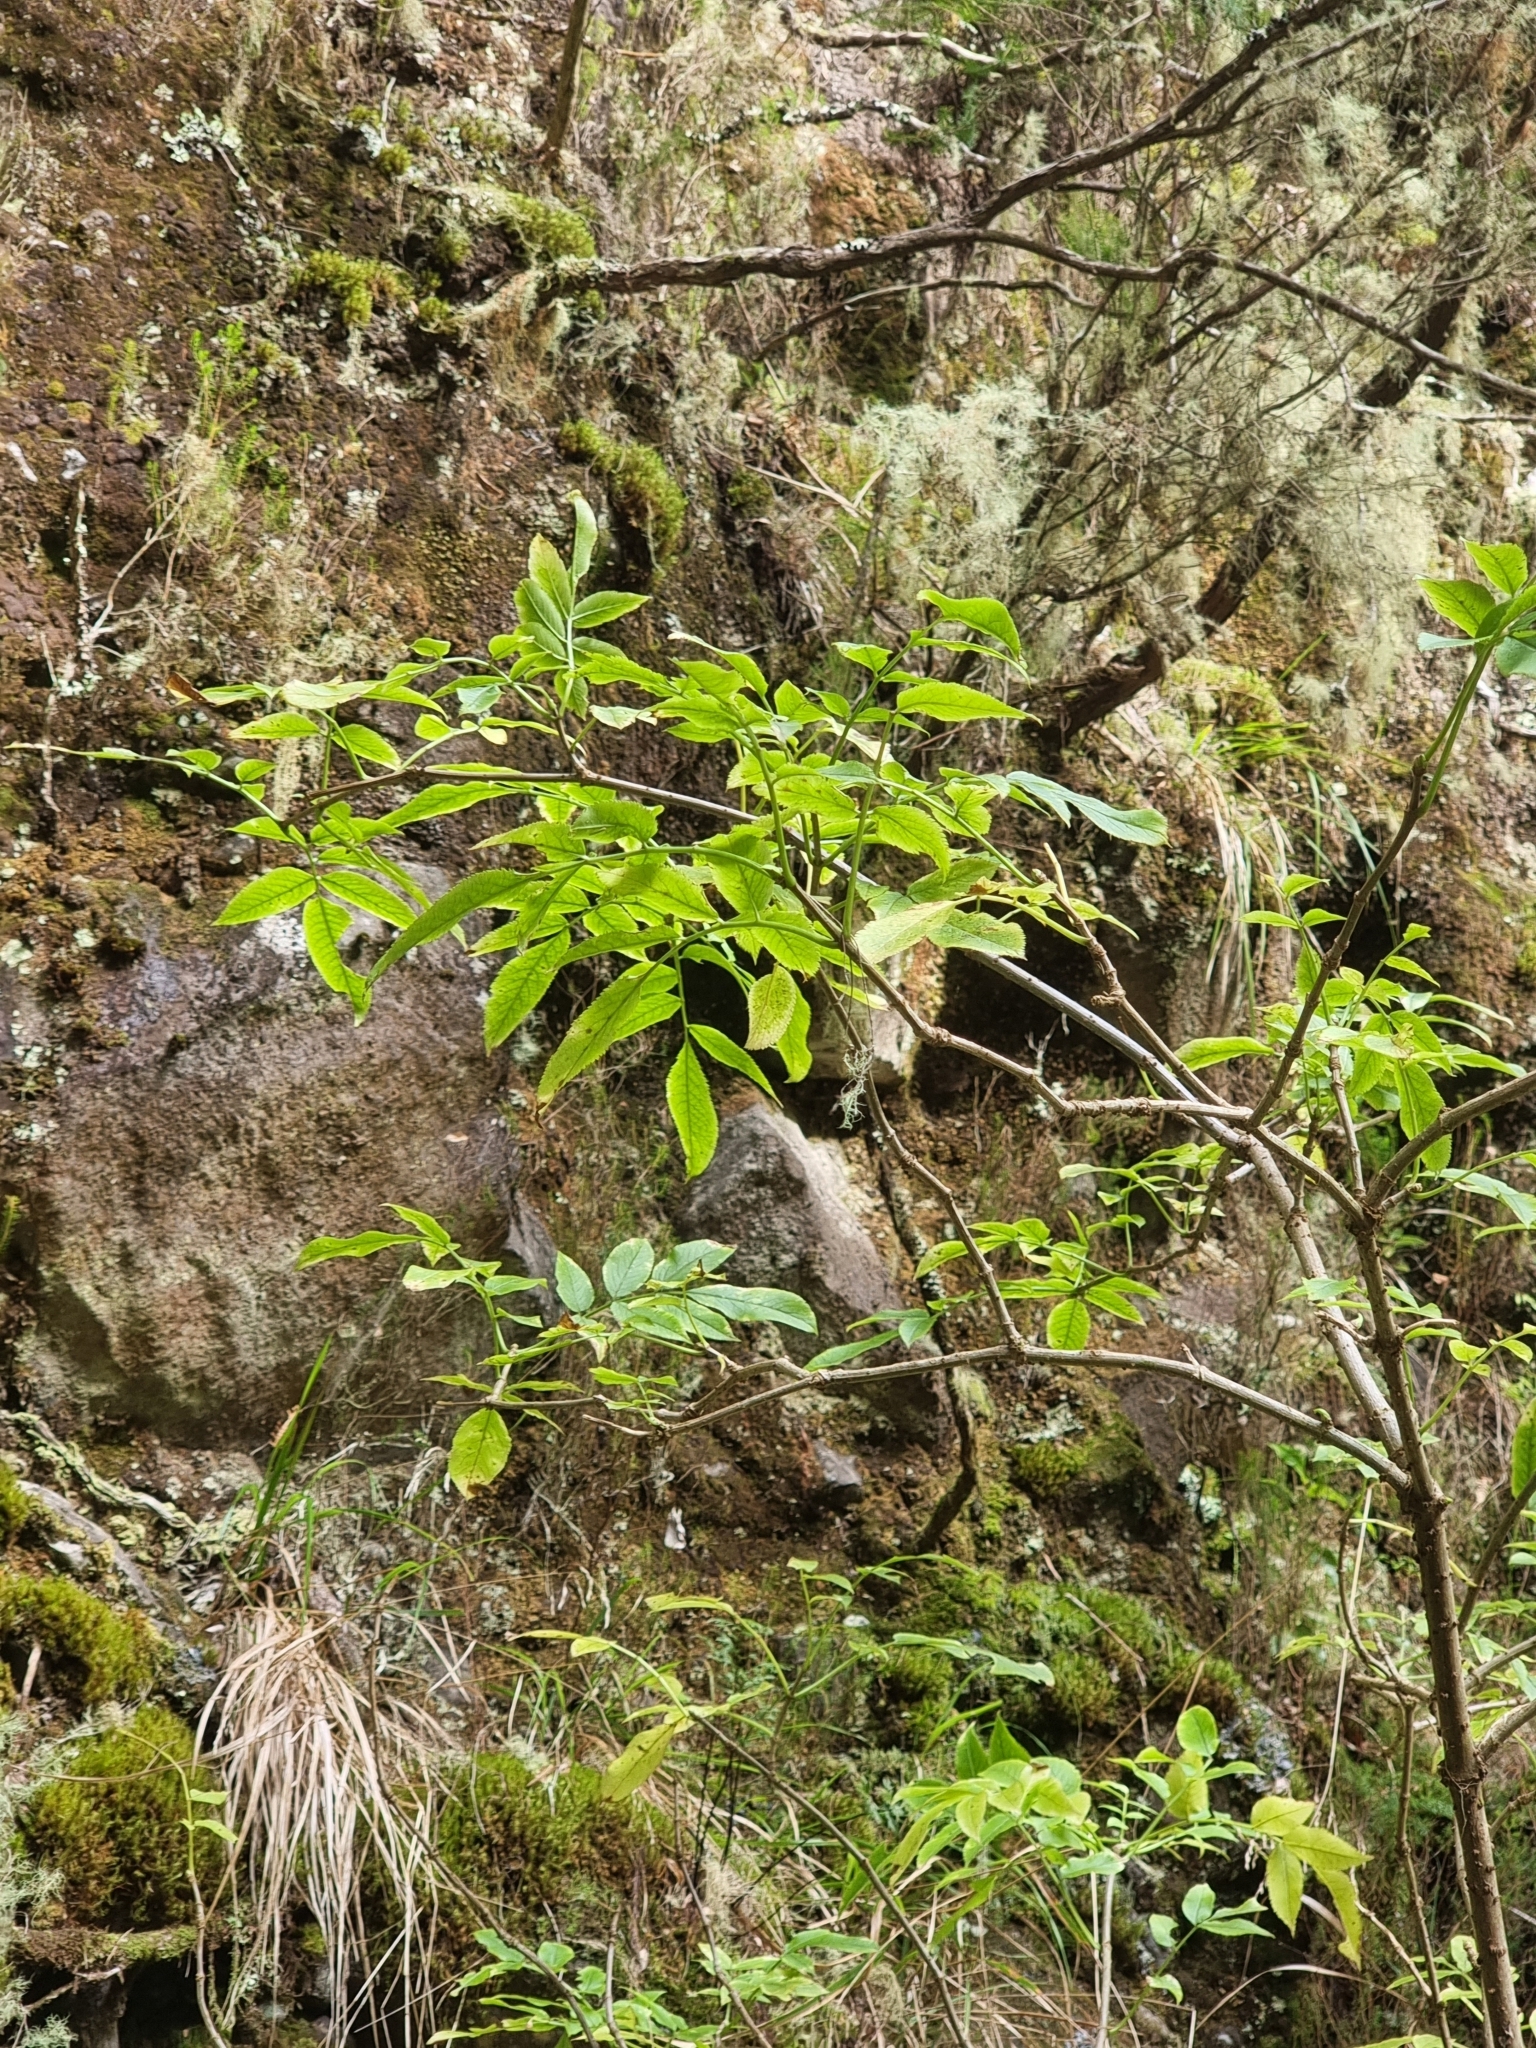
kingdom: Plantae
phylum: Tracheophyta
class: Magnoliopsida
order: Dipsacales
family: Viburnaceae
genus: Sambucus
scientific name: Sambucus lanceolata
